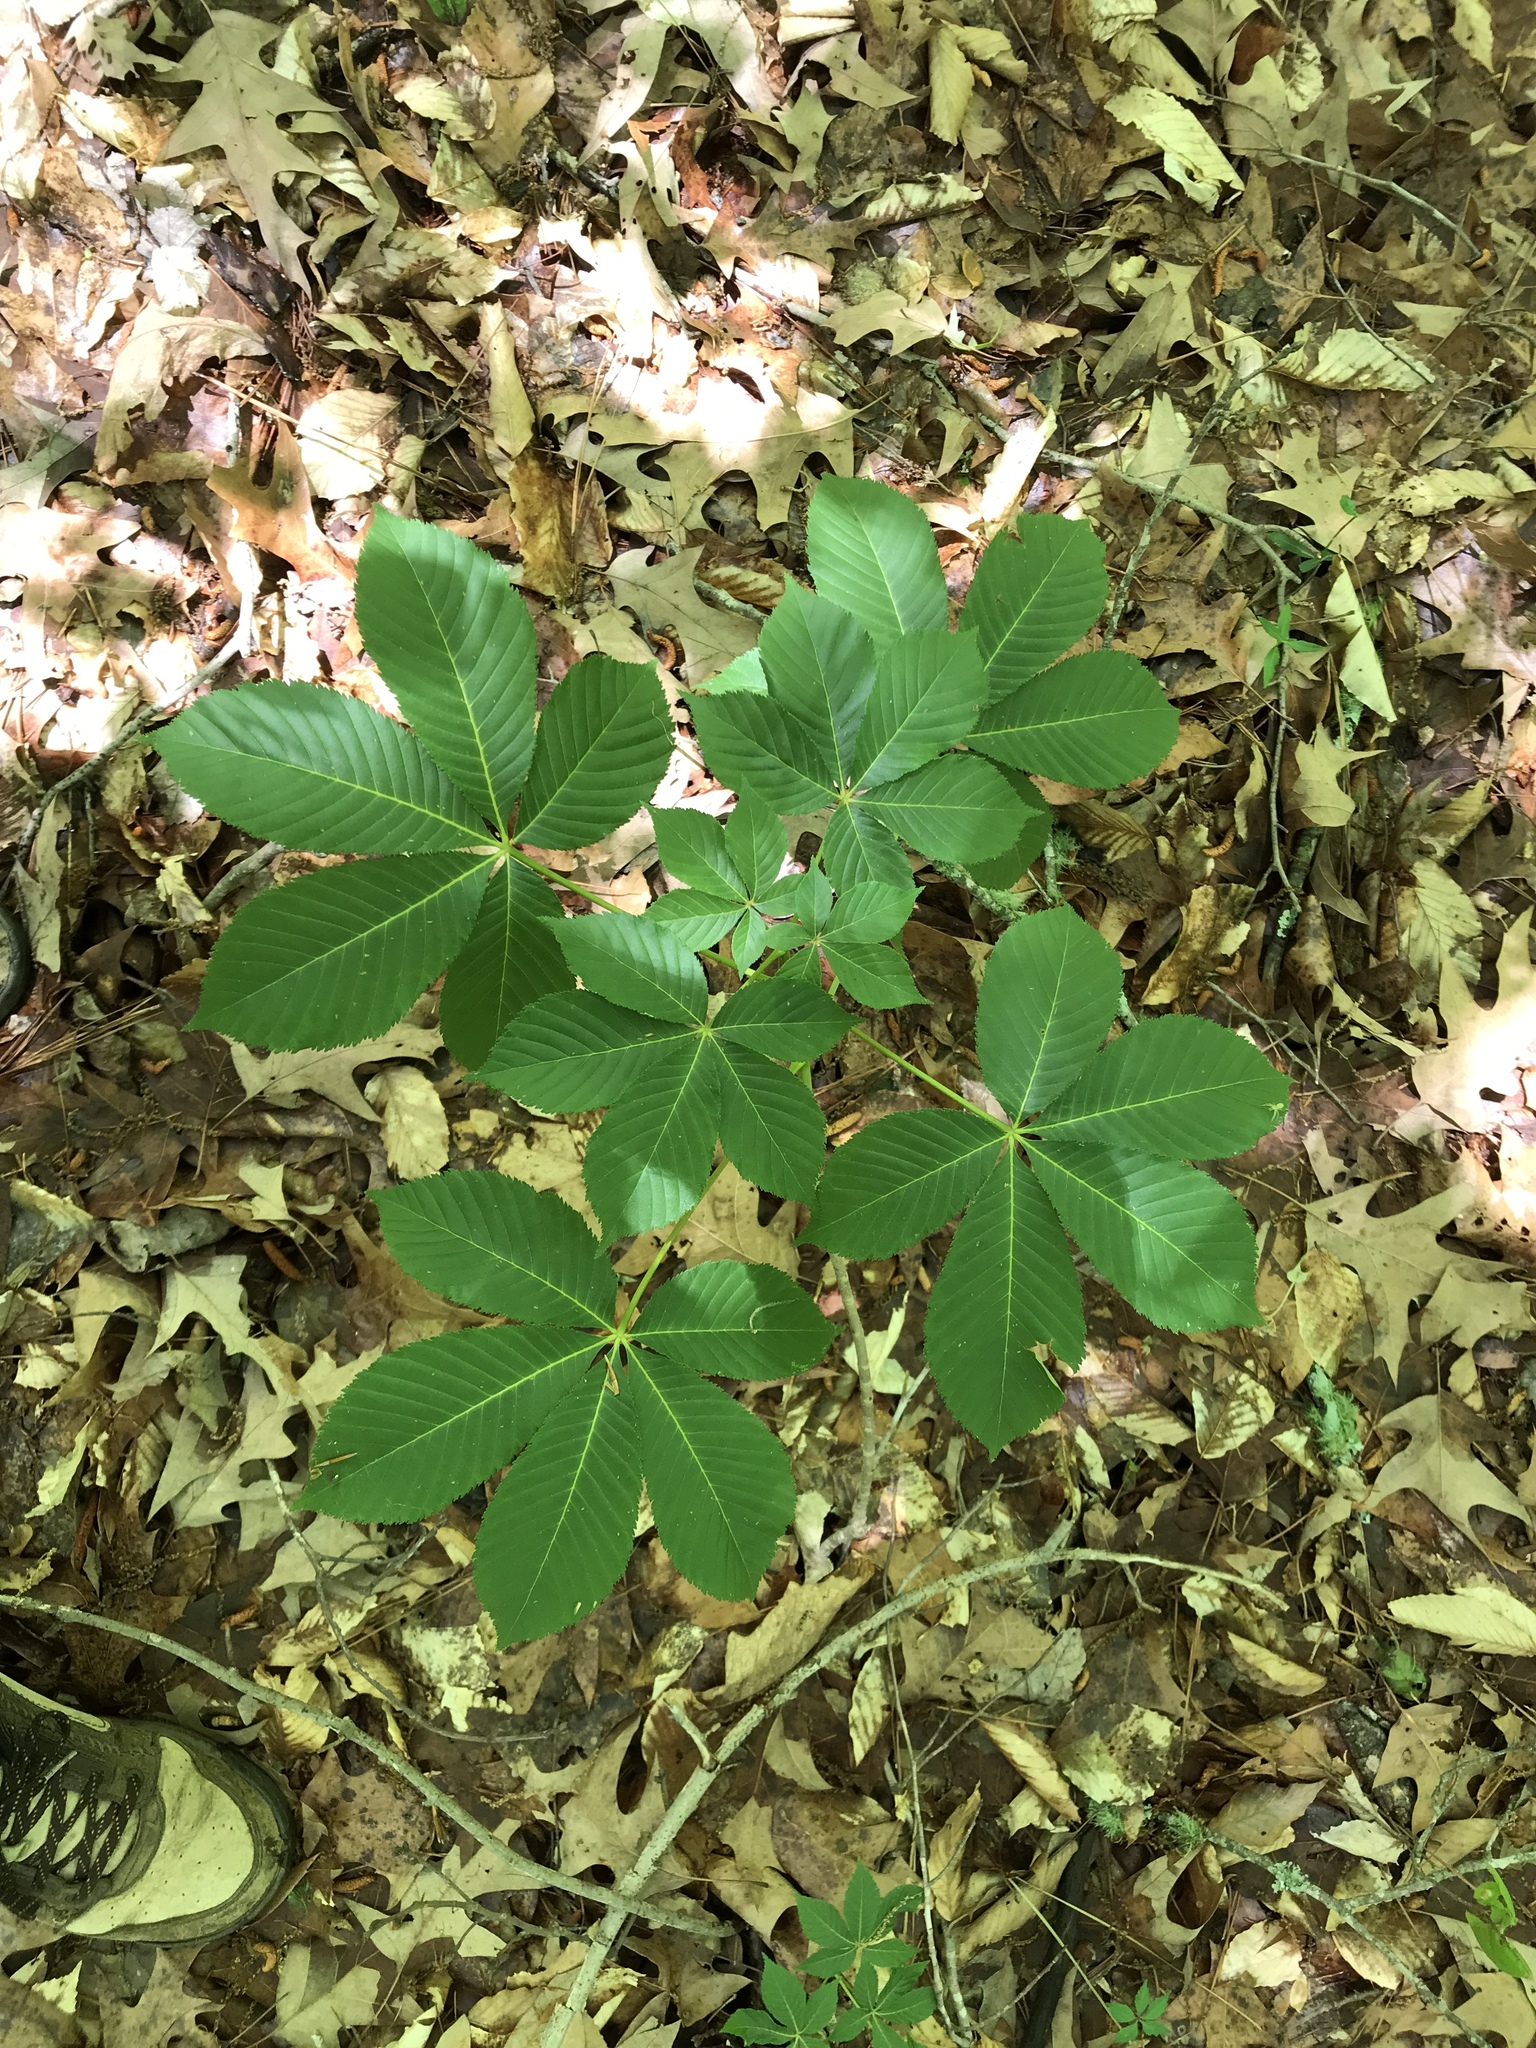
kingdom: Plantae
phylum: Tracheophyta
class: Magnoliopsida
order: Sapindales
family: Sapindaceae
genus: Aesculus
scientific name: Aesculus sylvatica
